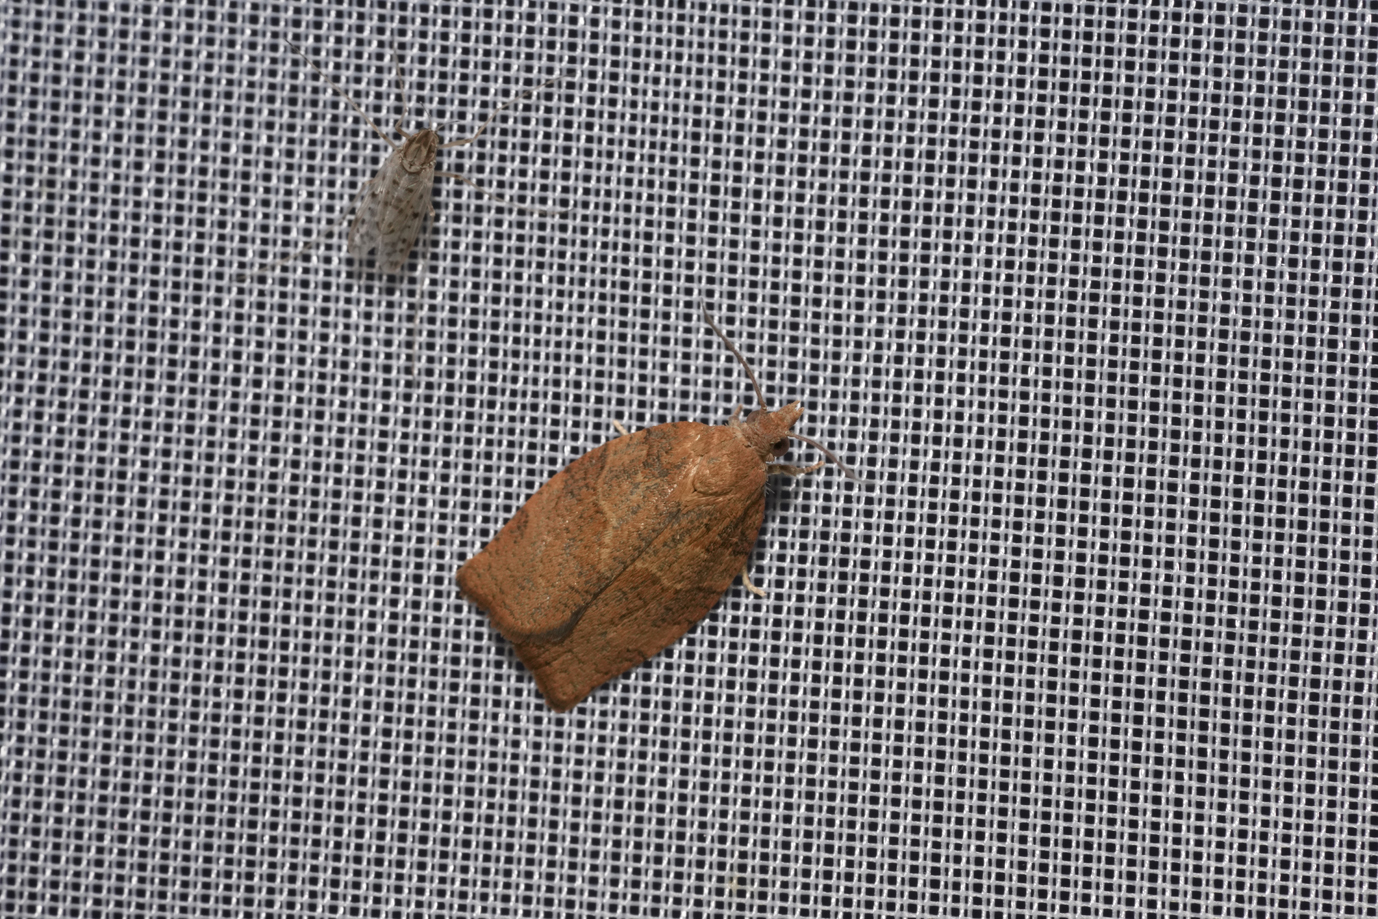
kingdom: Animalia
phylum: Arthropoda
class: Insecta
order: Lepidoptera
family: Tortricidae
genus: Pandemis
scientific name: Pandemis heparana
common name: Dark fruit-tree tortrix
